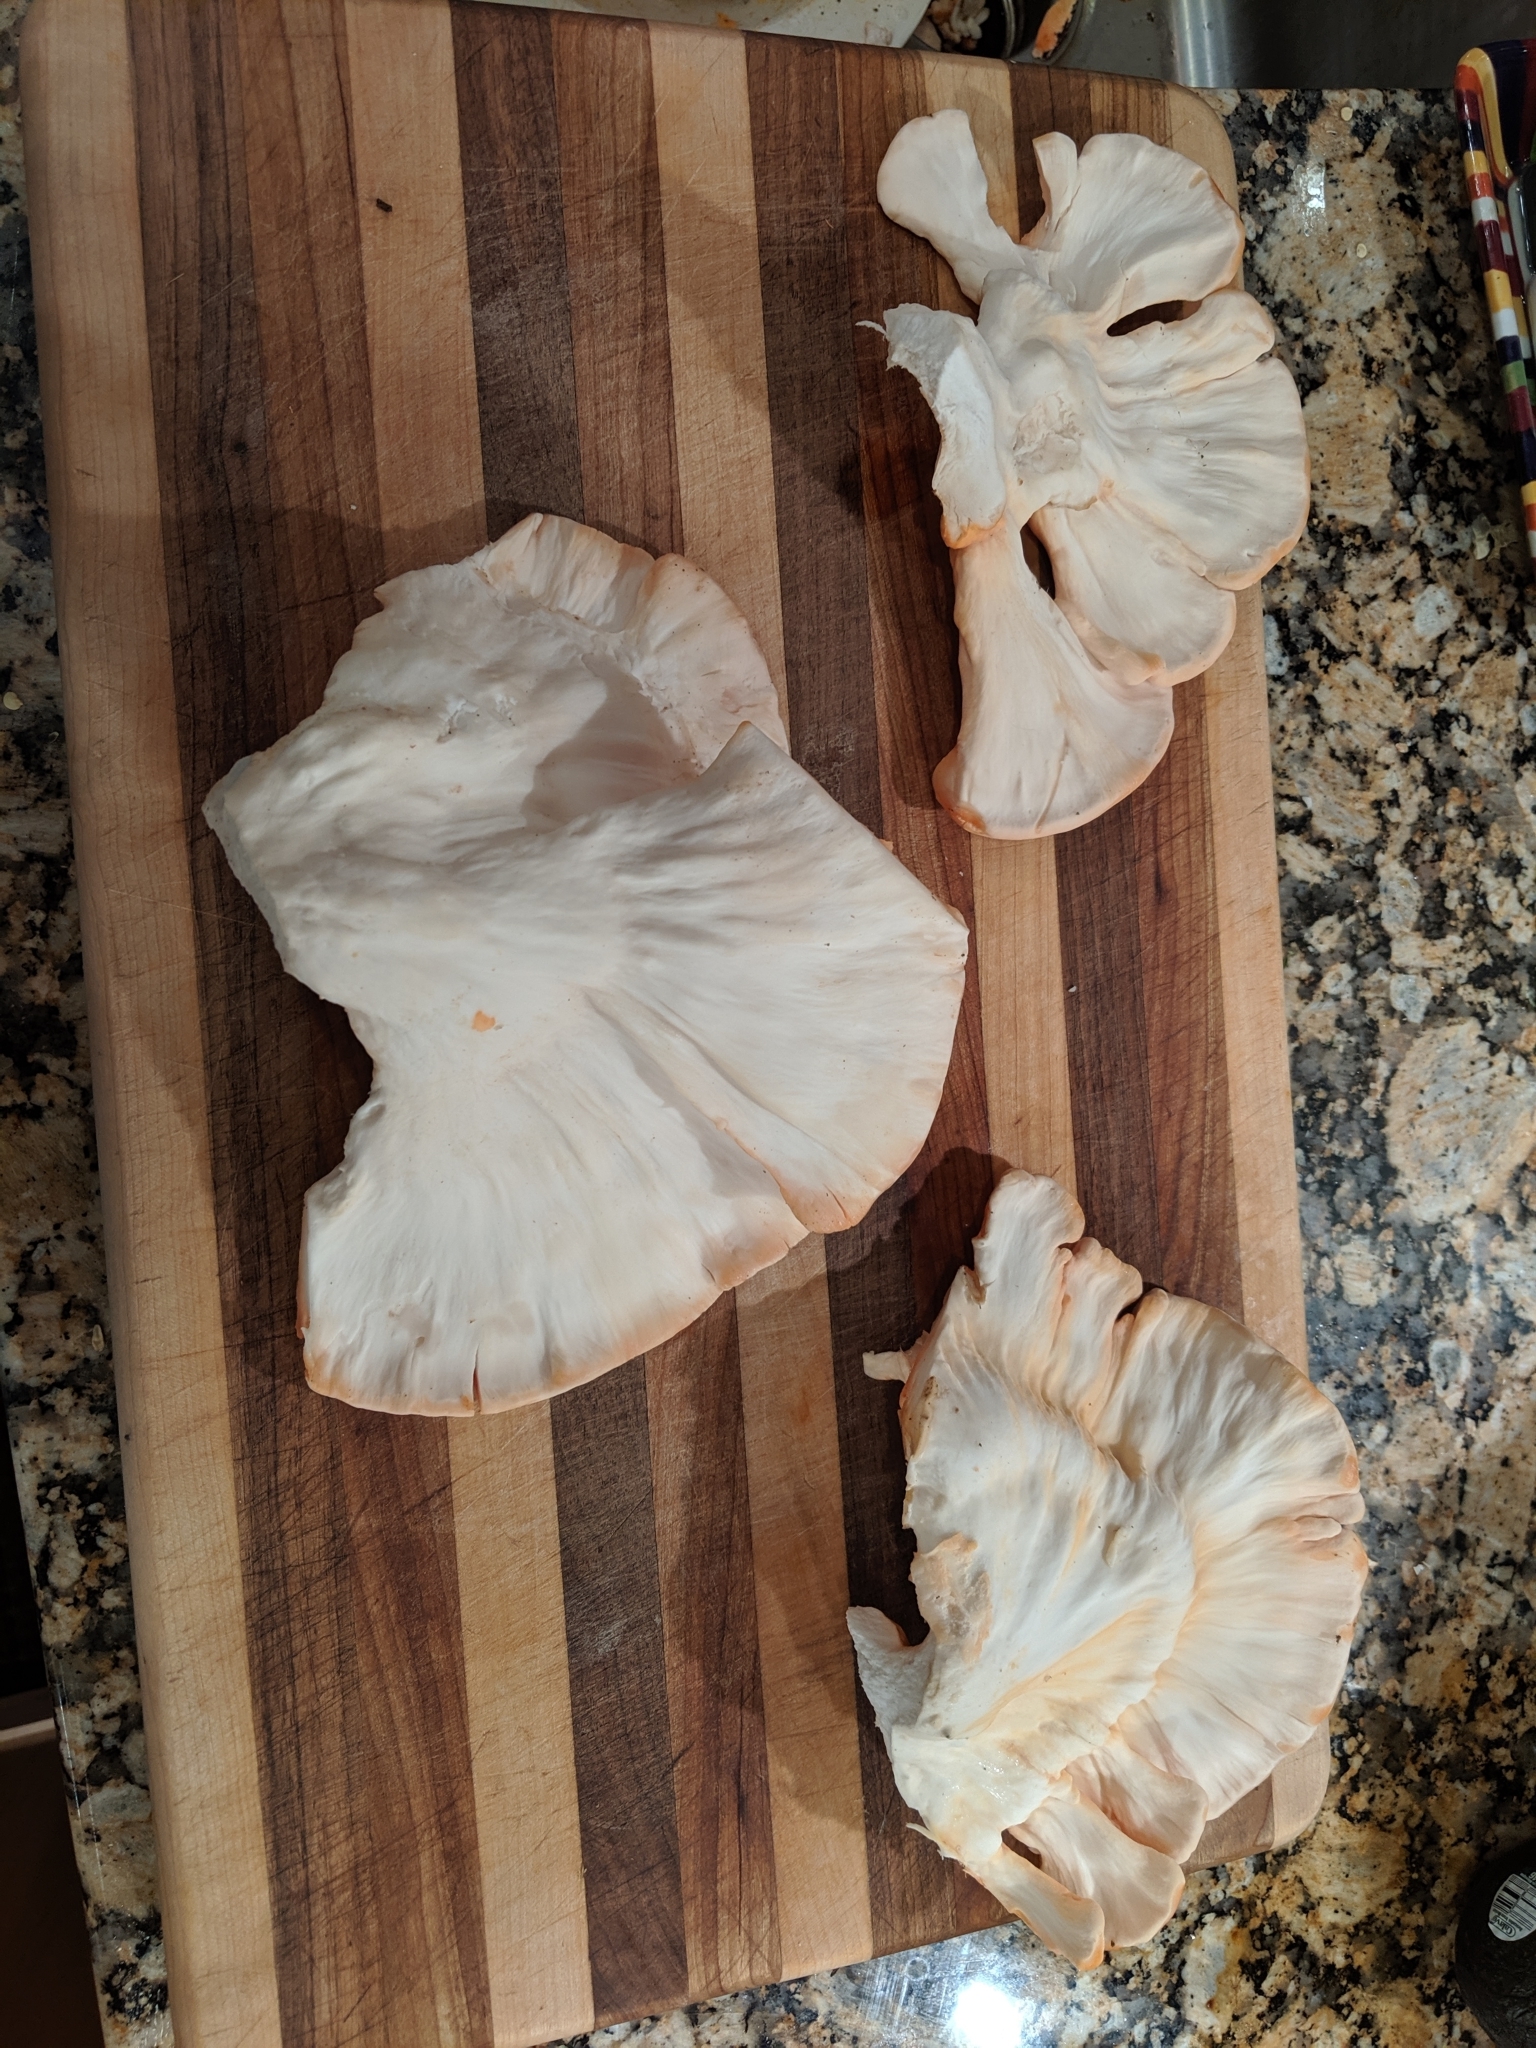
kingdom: Fungi
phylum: Basidiomycota
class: Agaricomycetes
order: Polyporales
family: Laetiporaceae
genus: Laetiporus
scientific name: Laetiporus sulphureus
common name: Chicken of the woods
